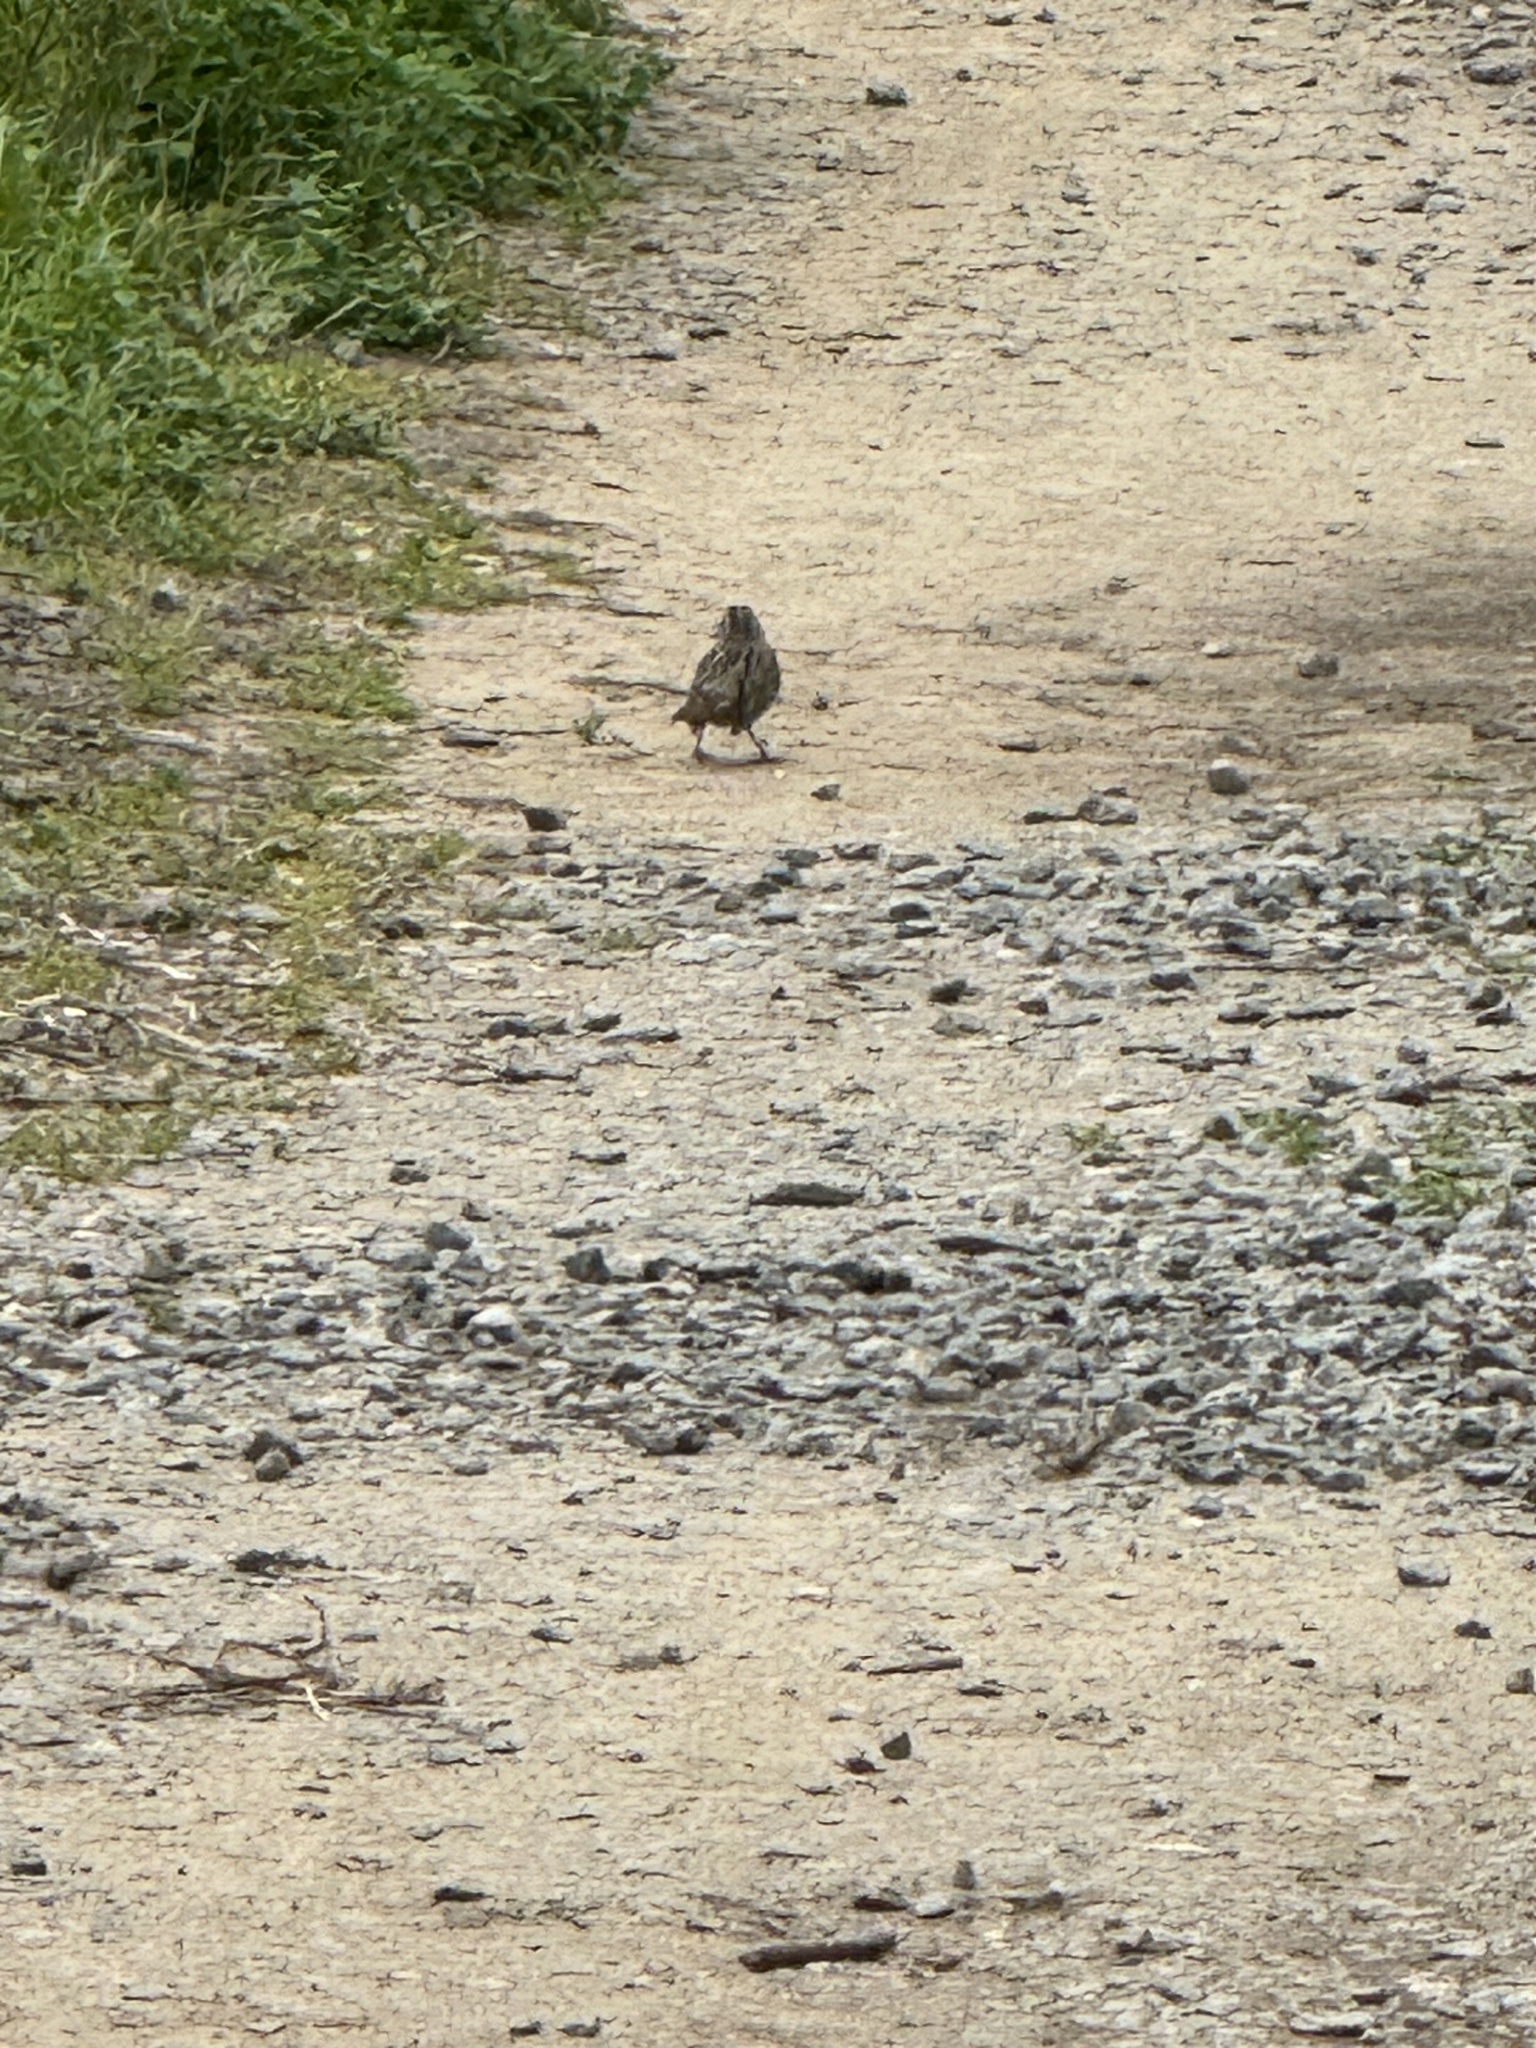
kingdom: Animalia
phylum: Chordata
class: Aves
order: Passeriformes
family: Passerellidae
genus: Melospiza
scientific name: Melospiza melodia
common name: Song sparrow
